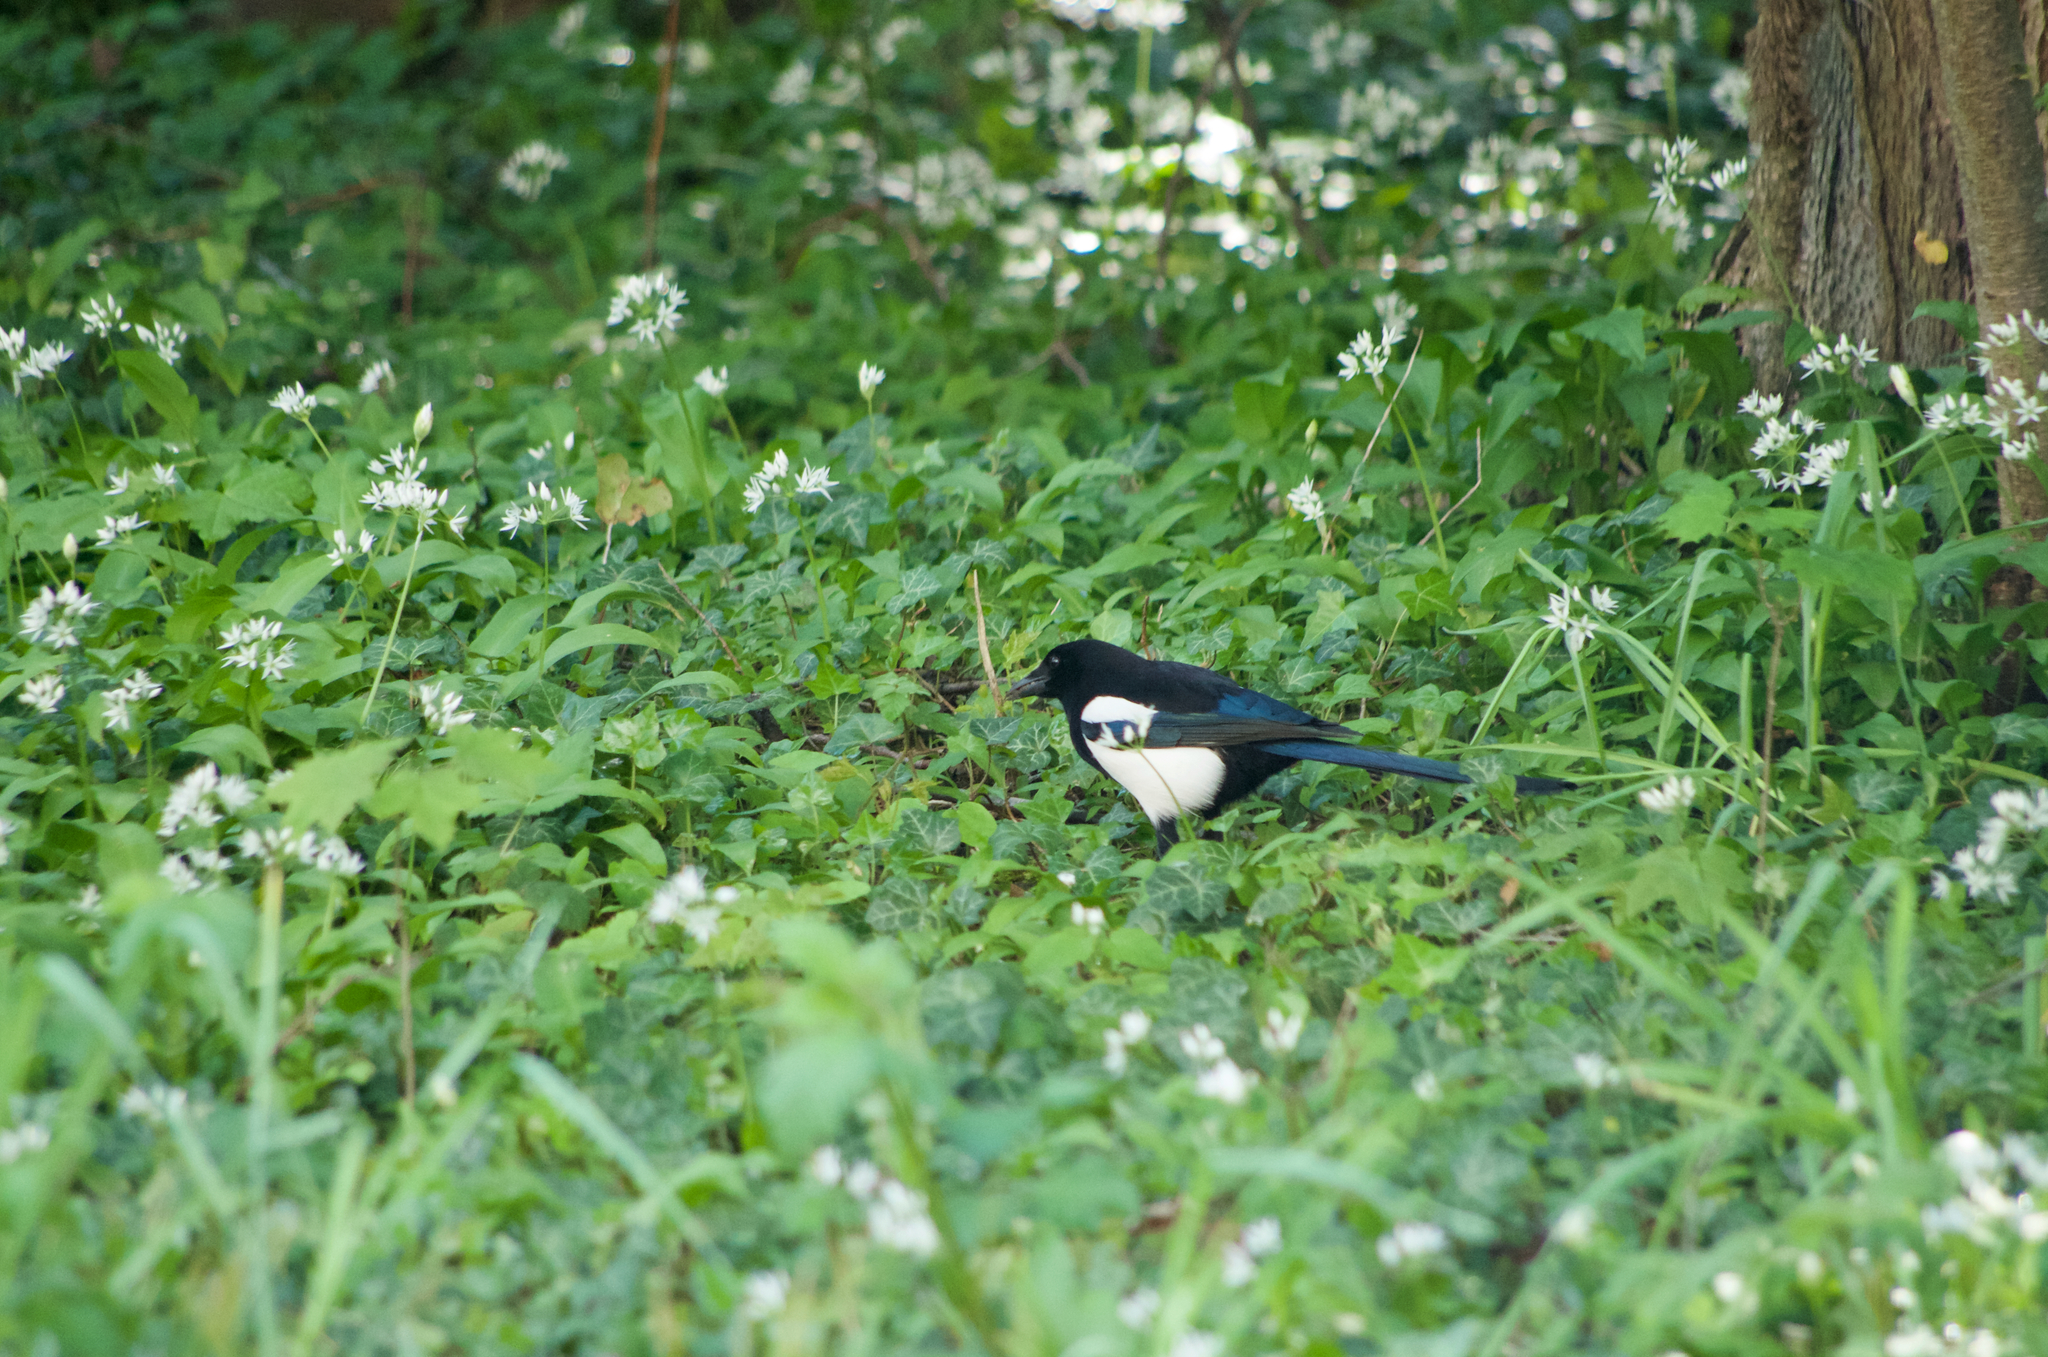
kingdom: Animalia
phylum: Chordata
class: Aves
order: Passeriformes
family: Corvidae
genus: Pica
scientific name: Pica pica
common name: Eurasian magpie
